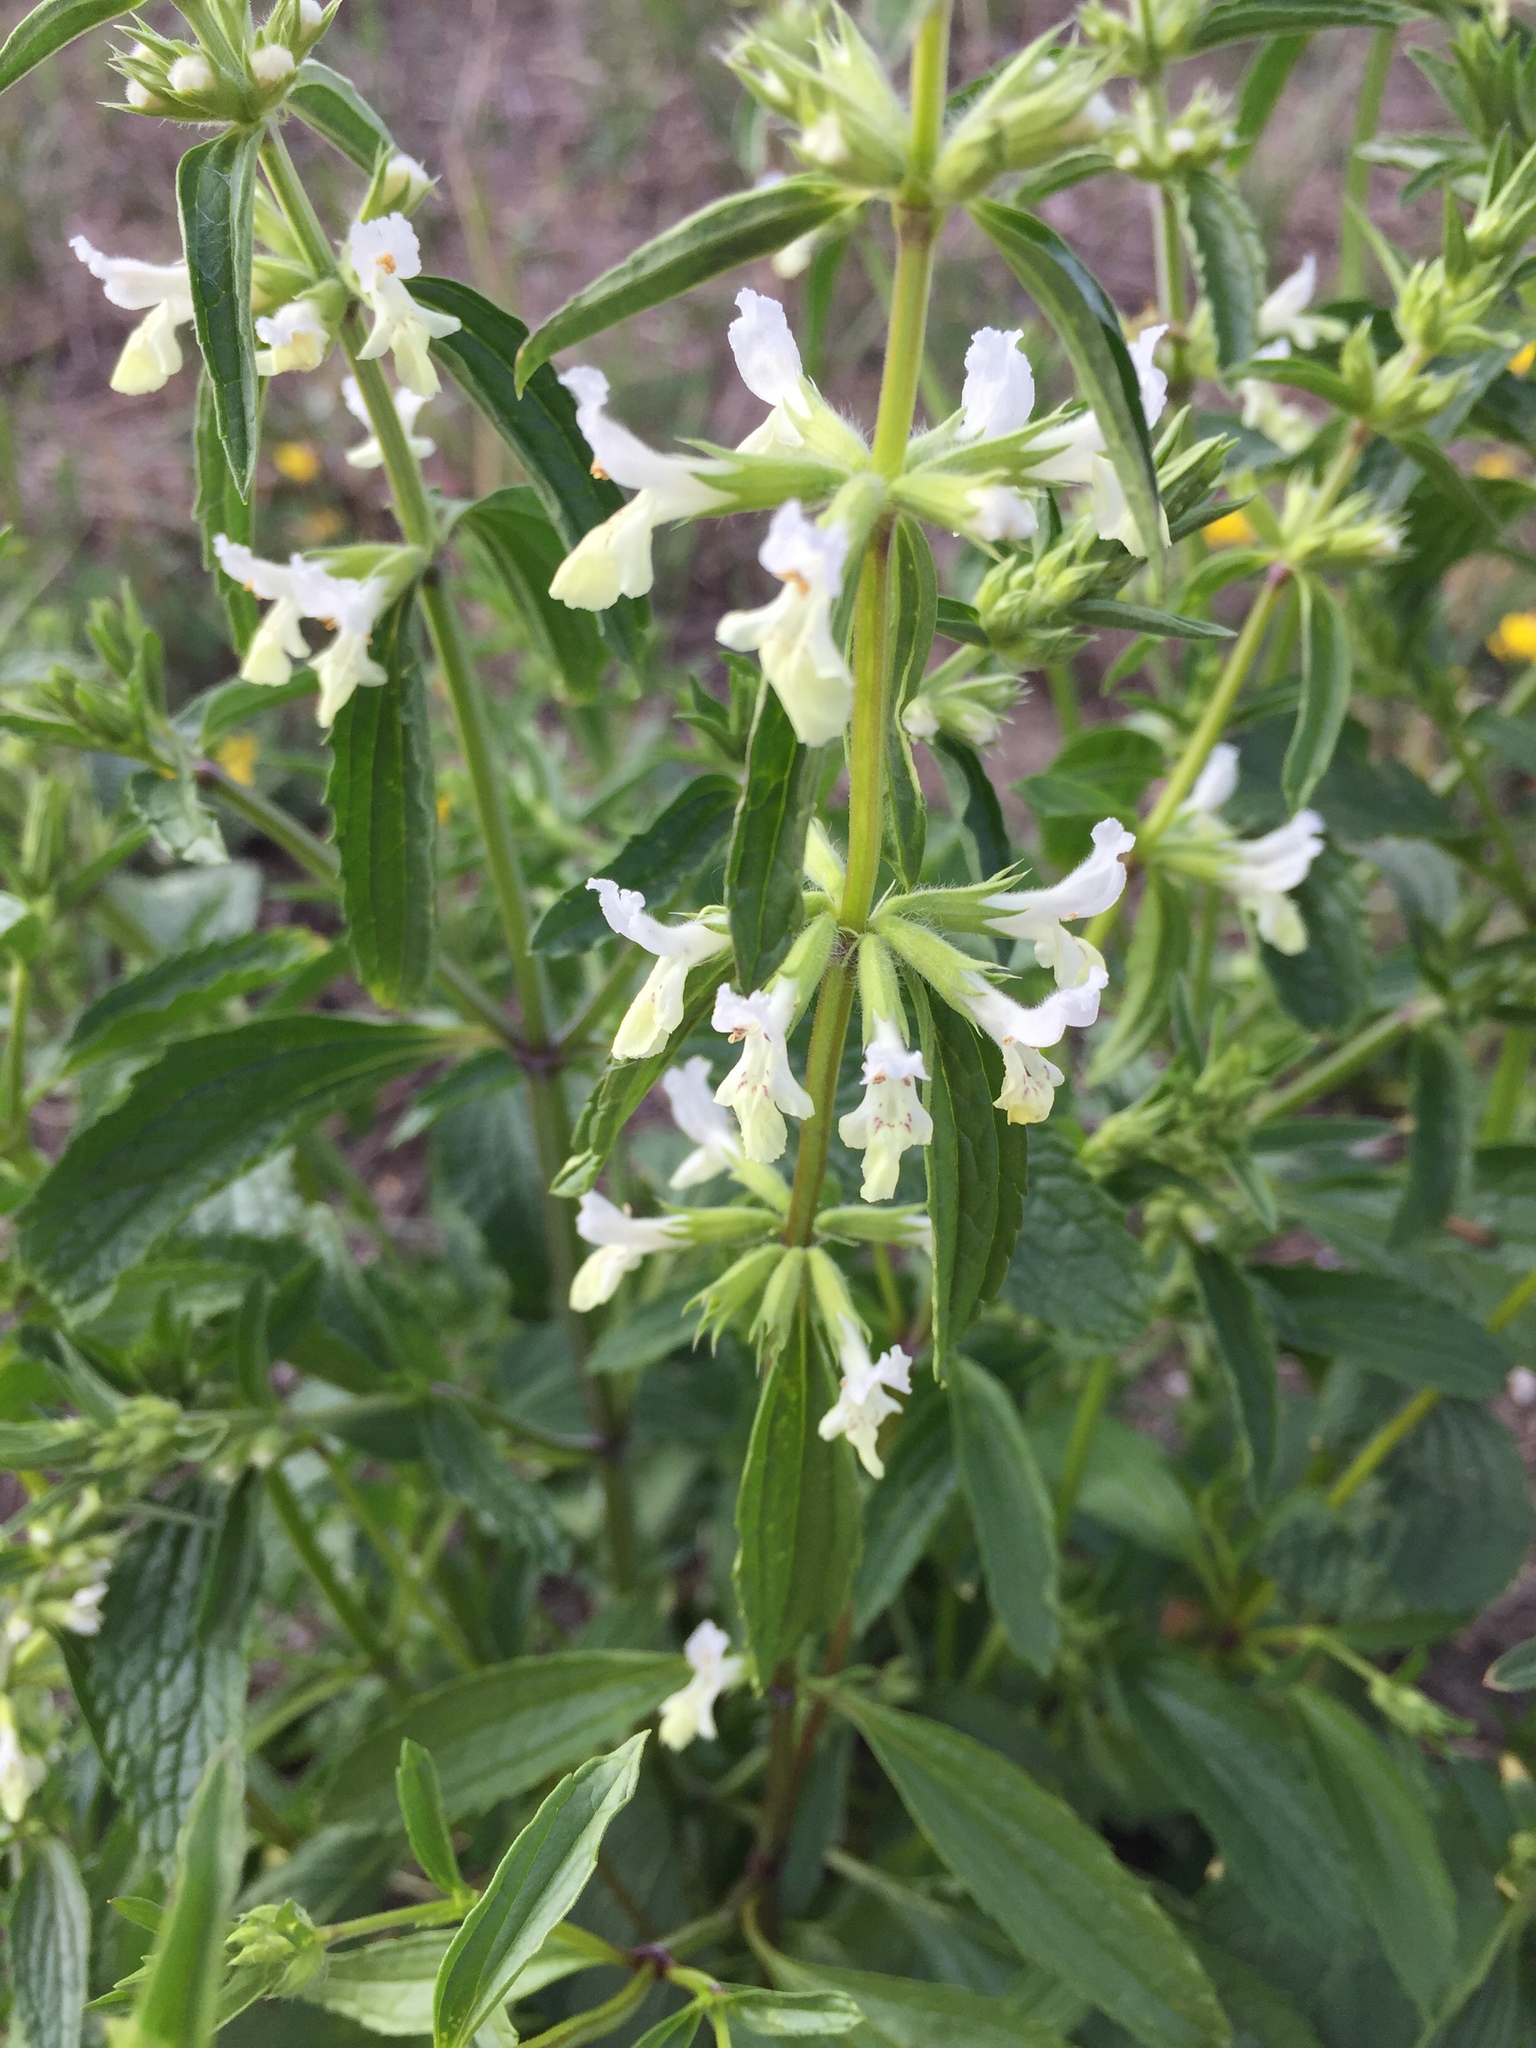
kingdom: Plantae
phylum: Tracheophyta
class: Magnoliopsida
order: Lamiales
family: Lamiaceae
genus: Stachys
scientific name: Stachys annua
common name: Annual yellow-woundwort
